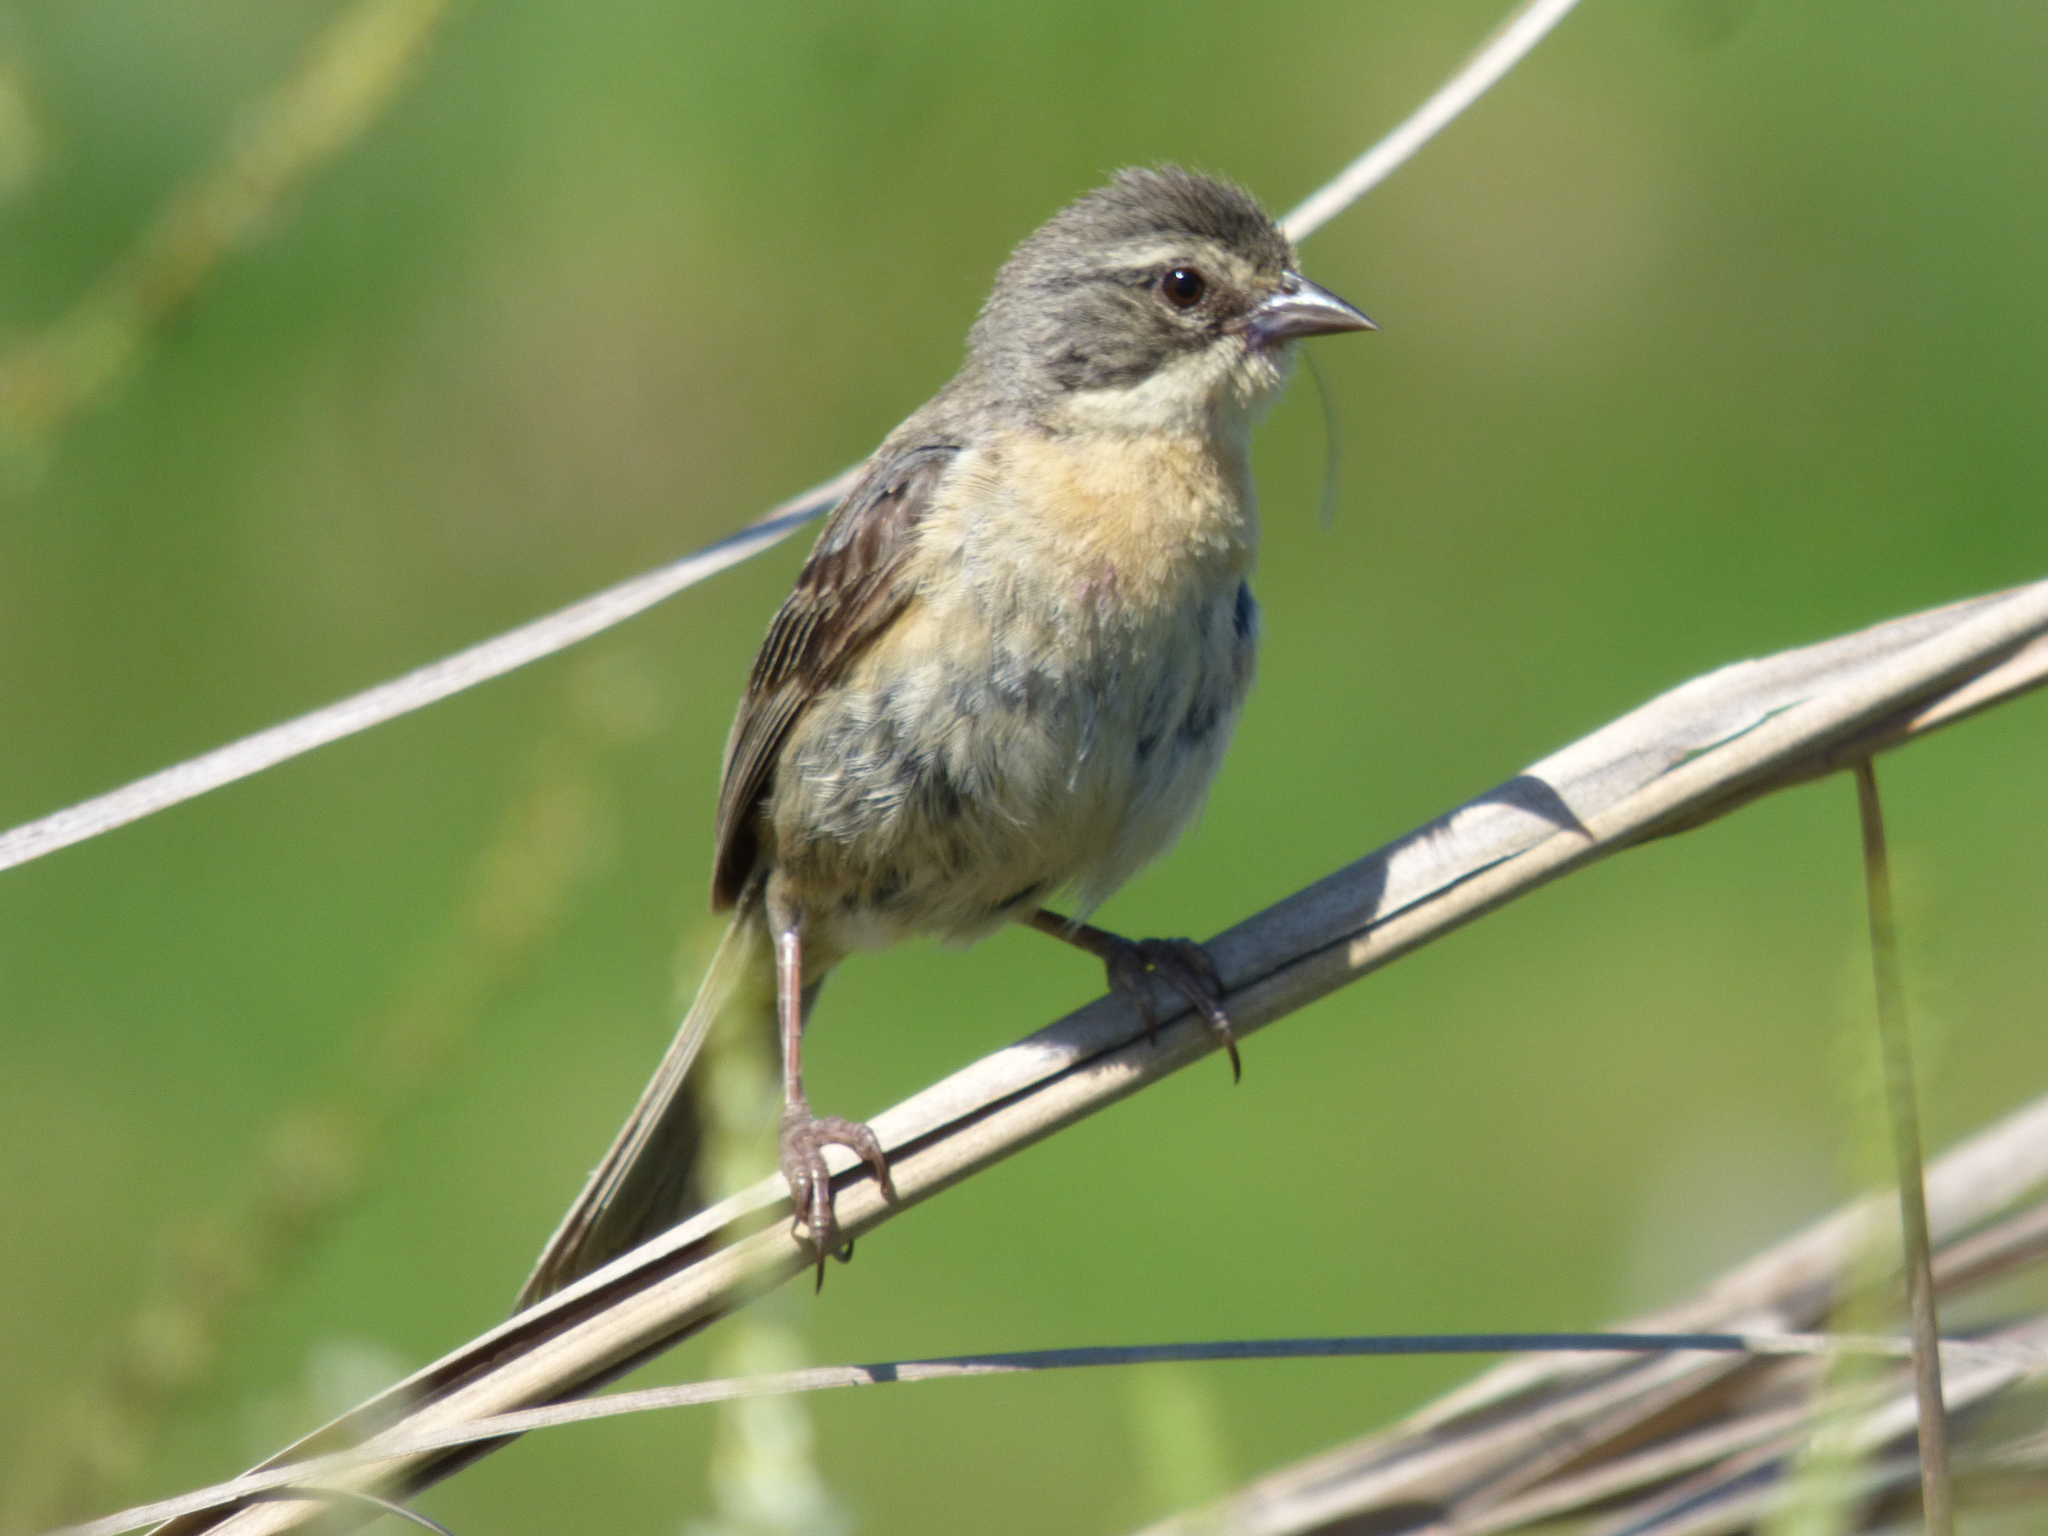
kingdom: Animalia
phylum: Chordata
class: Aves
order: Passeriformes
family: Thraupidae
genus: Donacospiza
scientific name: Donacospiza albifrons
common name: Long-tailed reed finch
